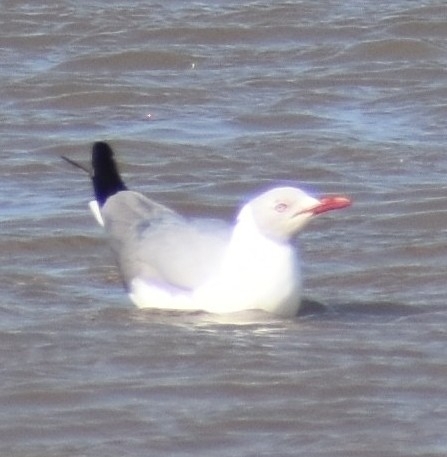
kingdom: Animalia
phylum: Chordata
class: Aves
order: Charadriiformes
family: Laridae
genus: Chroicocephalus
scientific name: Chroicocephalus cirrocephalus
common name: Grey-headed gull
